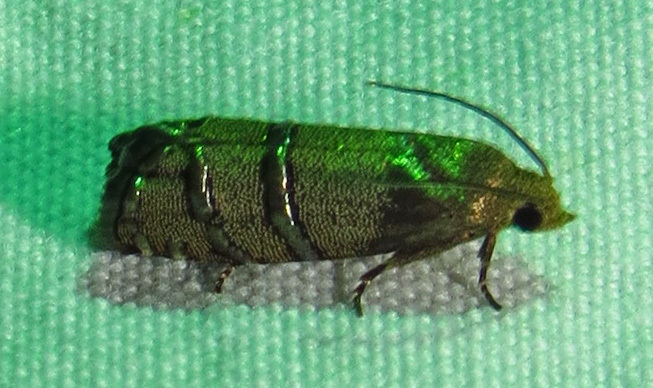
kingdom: Animalia
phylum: Arthropoda
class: Insecta
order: Lepidoptera
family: Tortricidae
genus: Cydia
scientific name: Cydia toreuta
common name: Eastern pine seedworm moth
